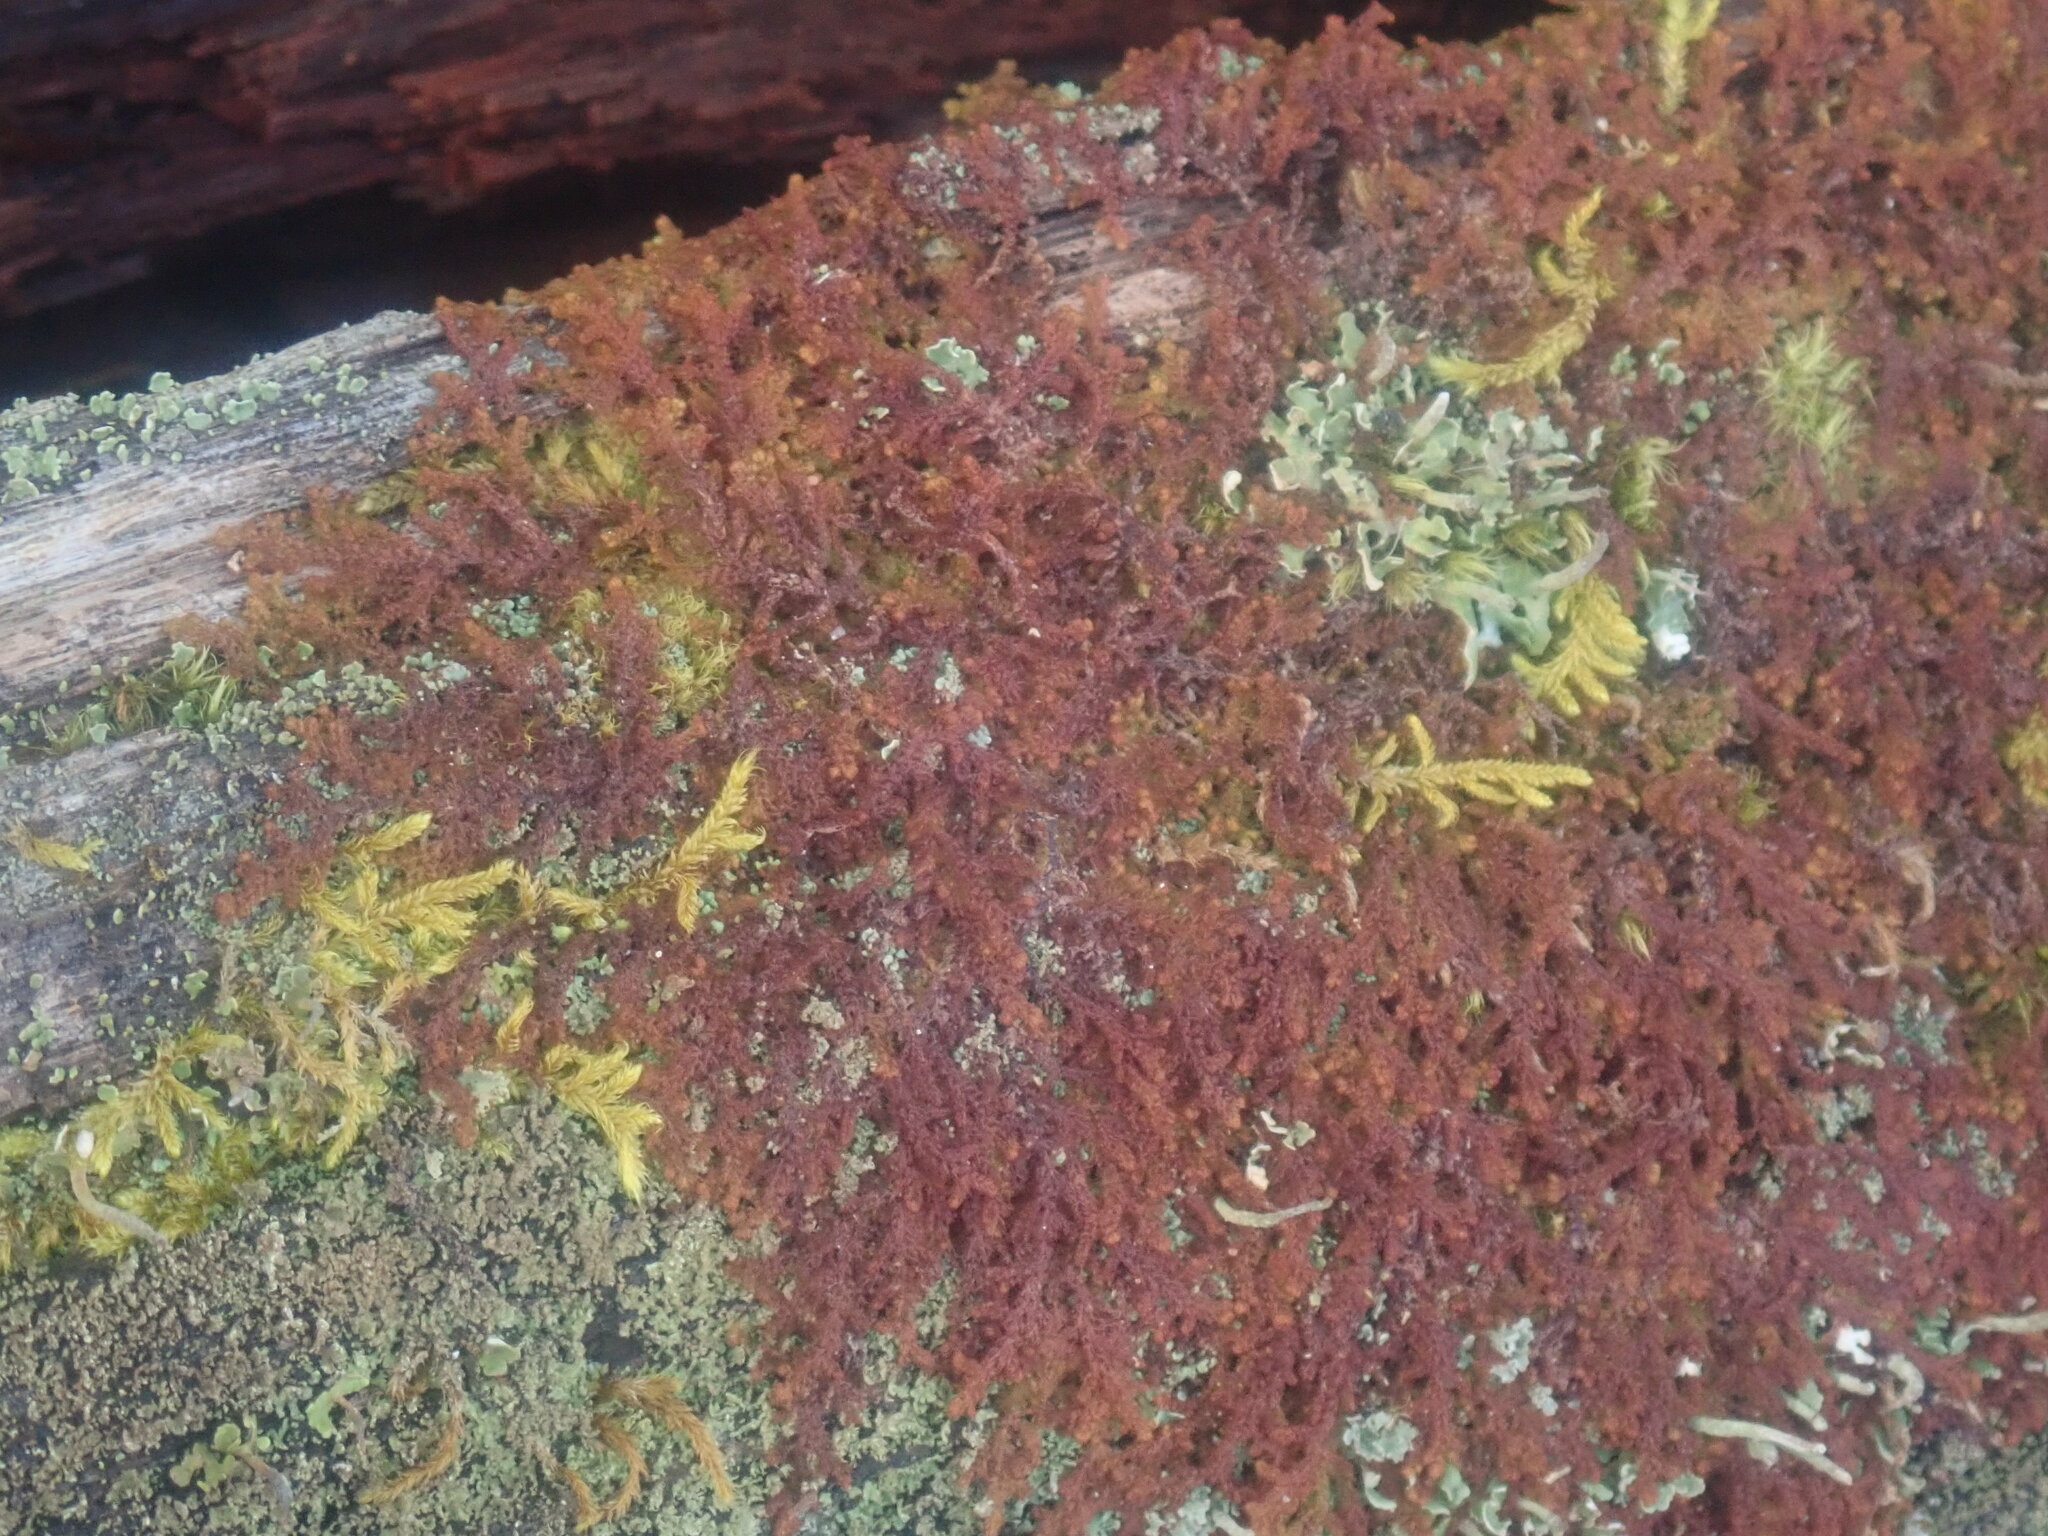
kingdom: Plantae
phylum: Marchantiophyta
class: Jungermanniopsida
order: Ptilidiales
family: Ptilidiaceae
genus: Ptilidium
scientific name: Ptilidium pulcherrimum
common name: Tree fringewort
